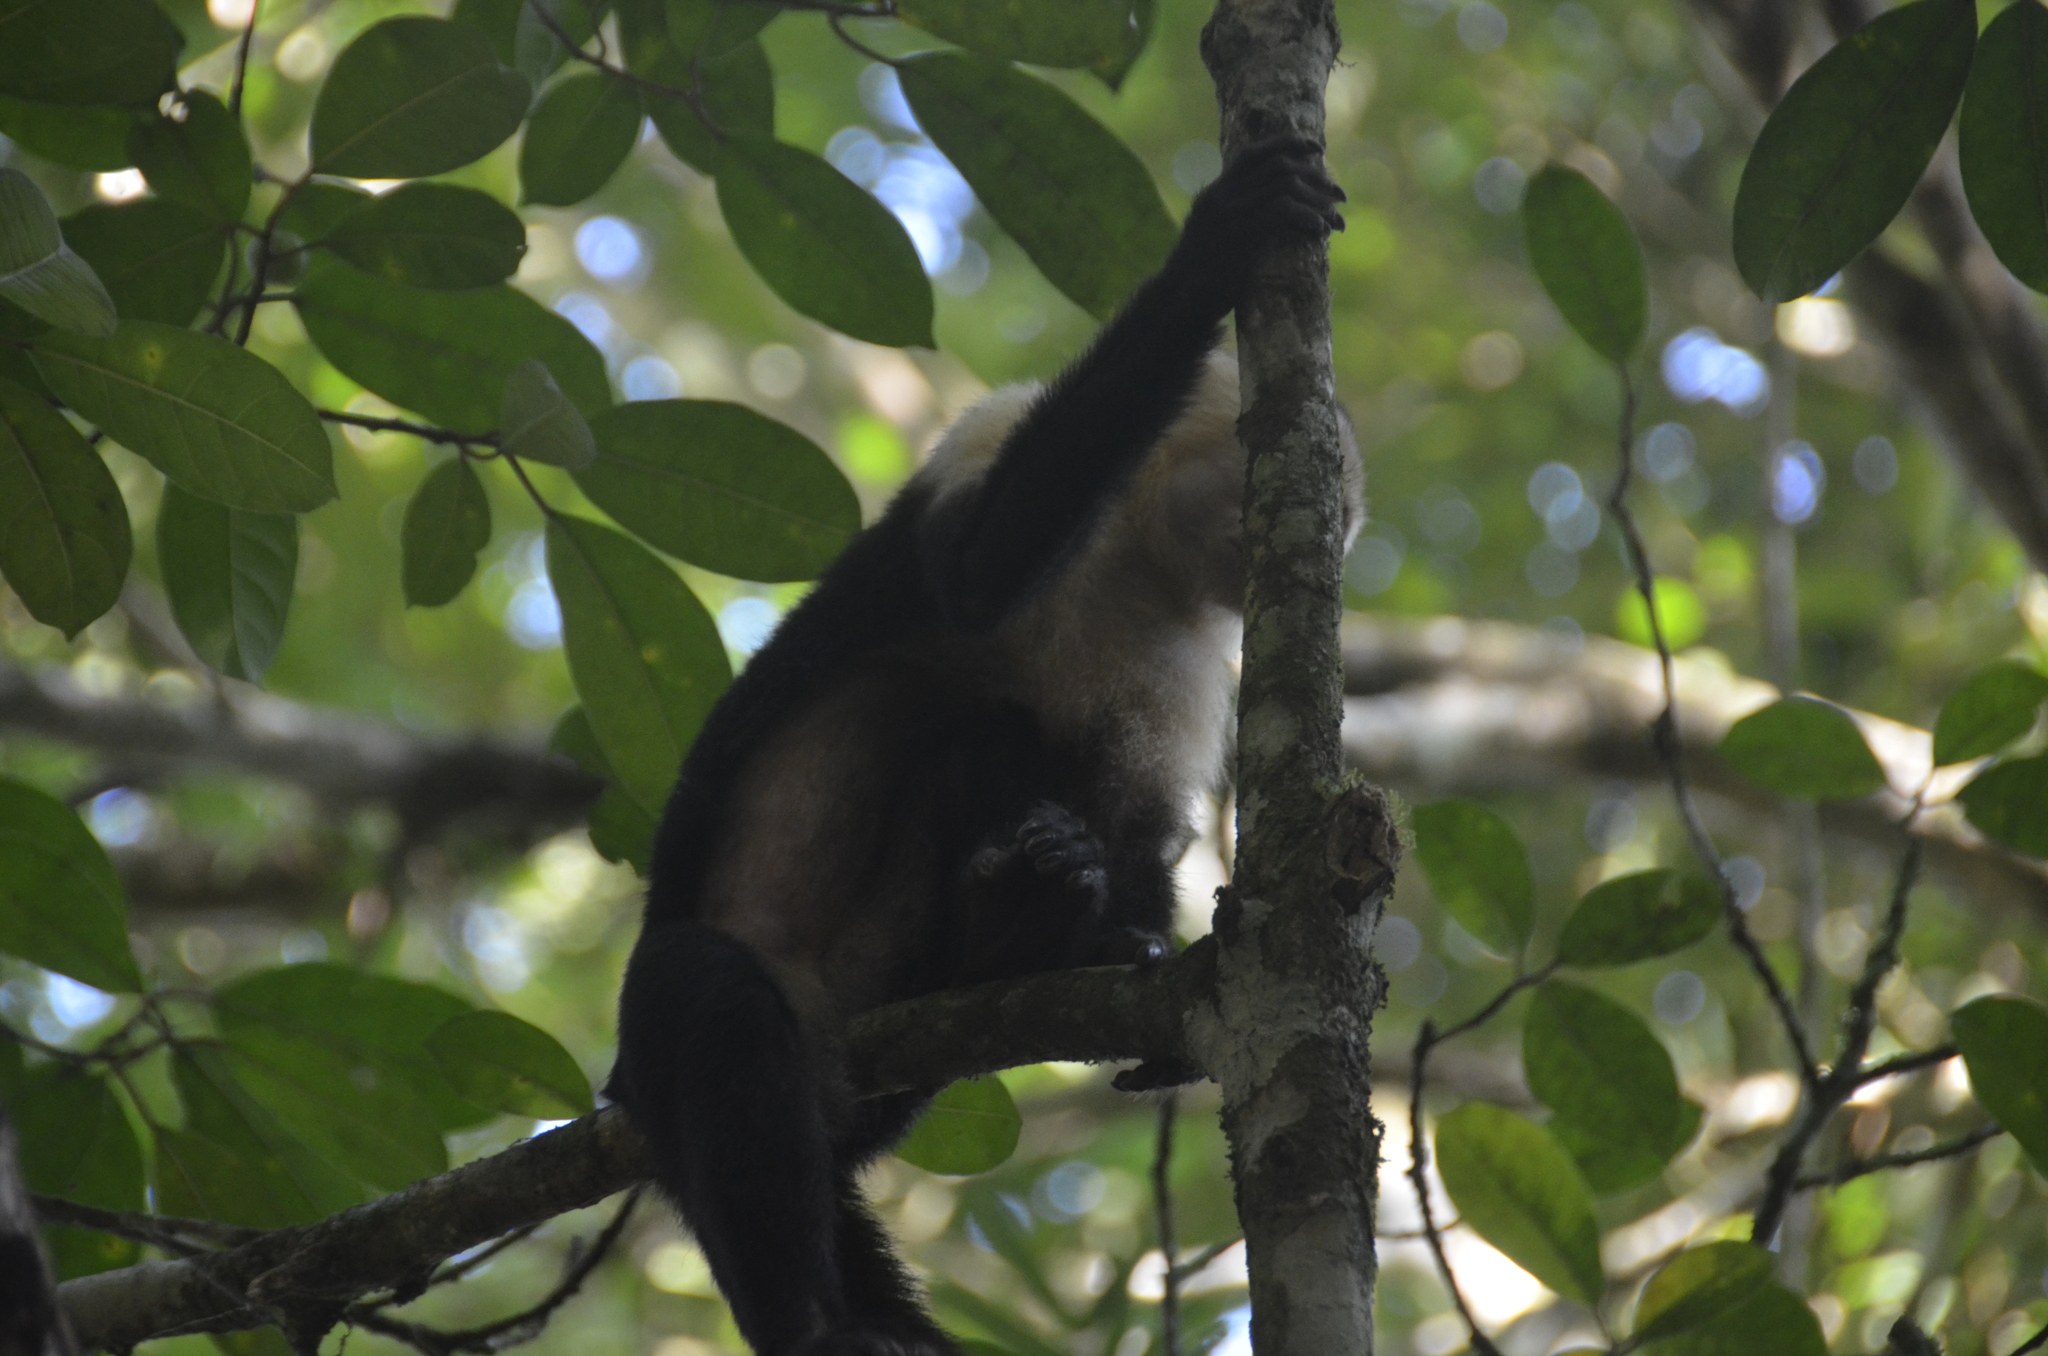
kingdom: Animalia
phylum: Chordata
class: Mammalia
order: Primates
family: Cebidae
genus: Cebus
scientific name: Cebus imitator
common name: Panamanian white-faced capuchin
